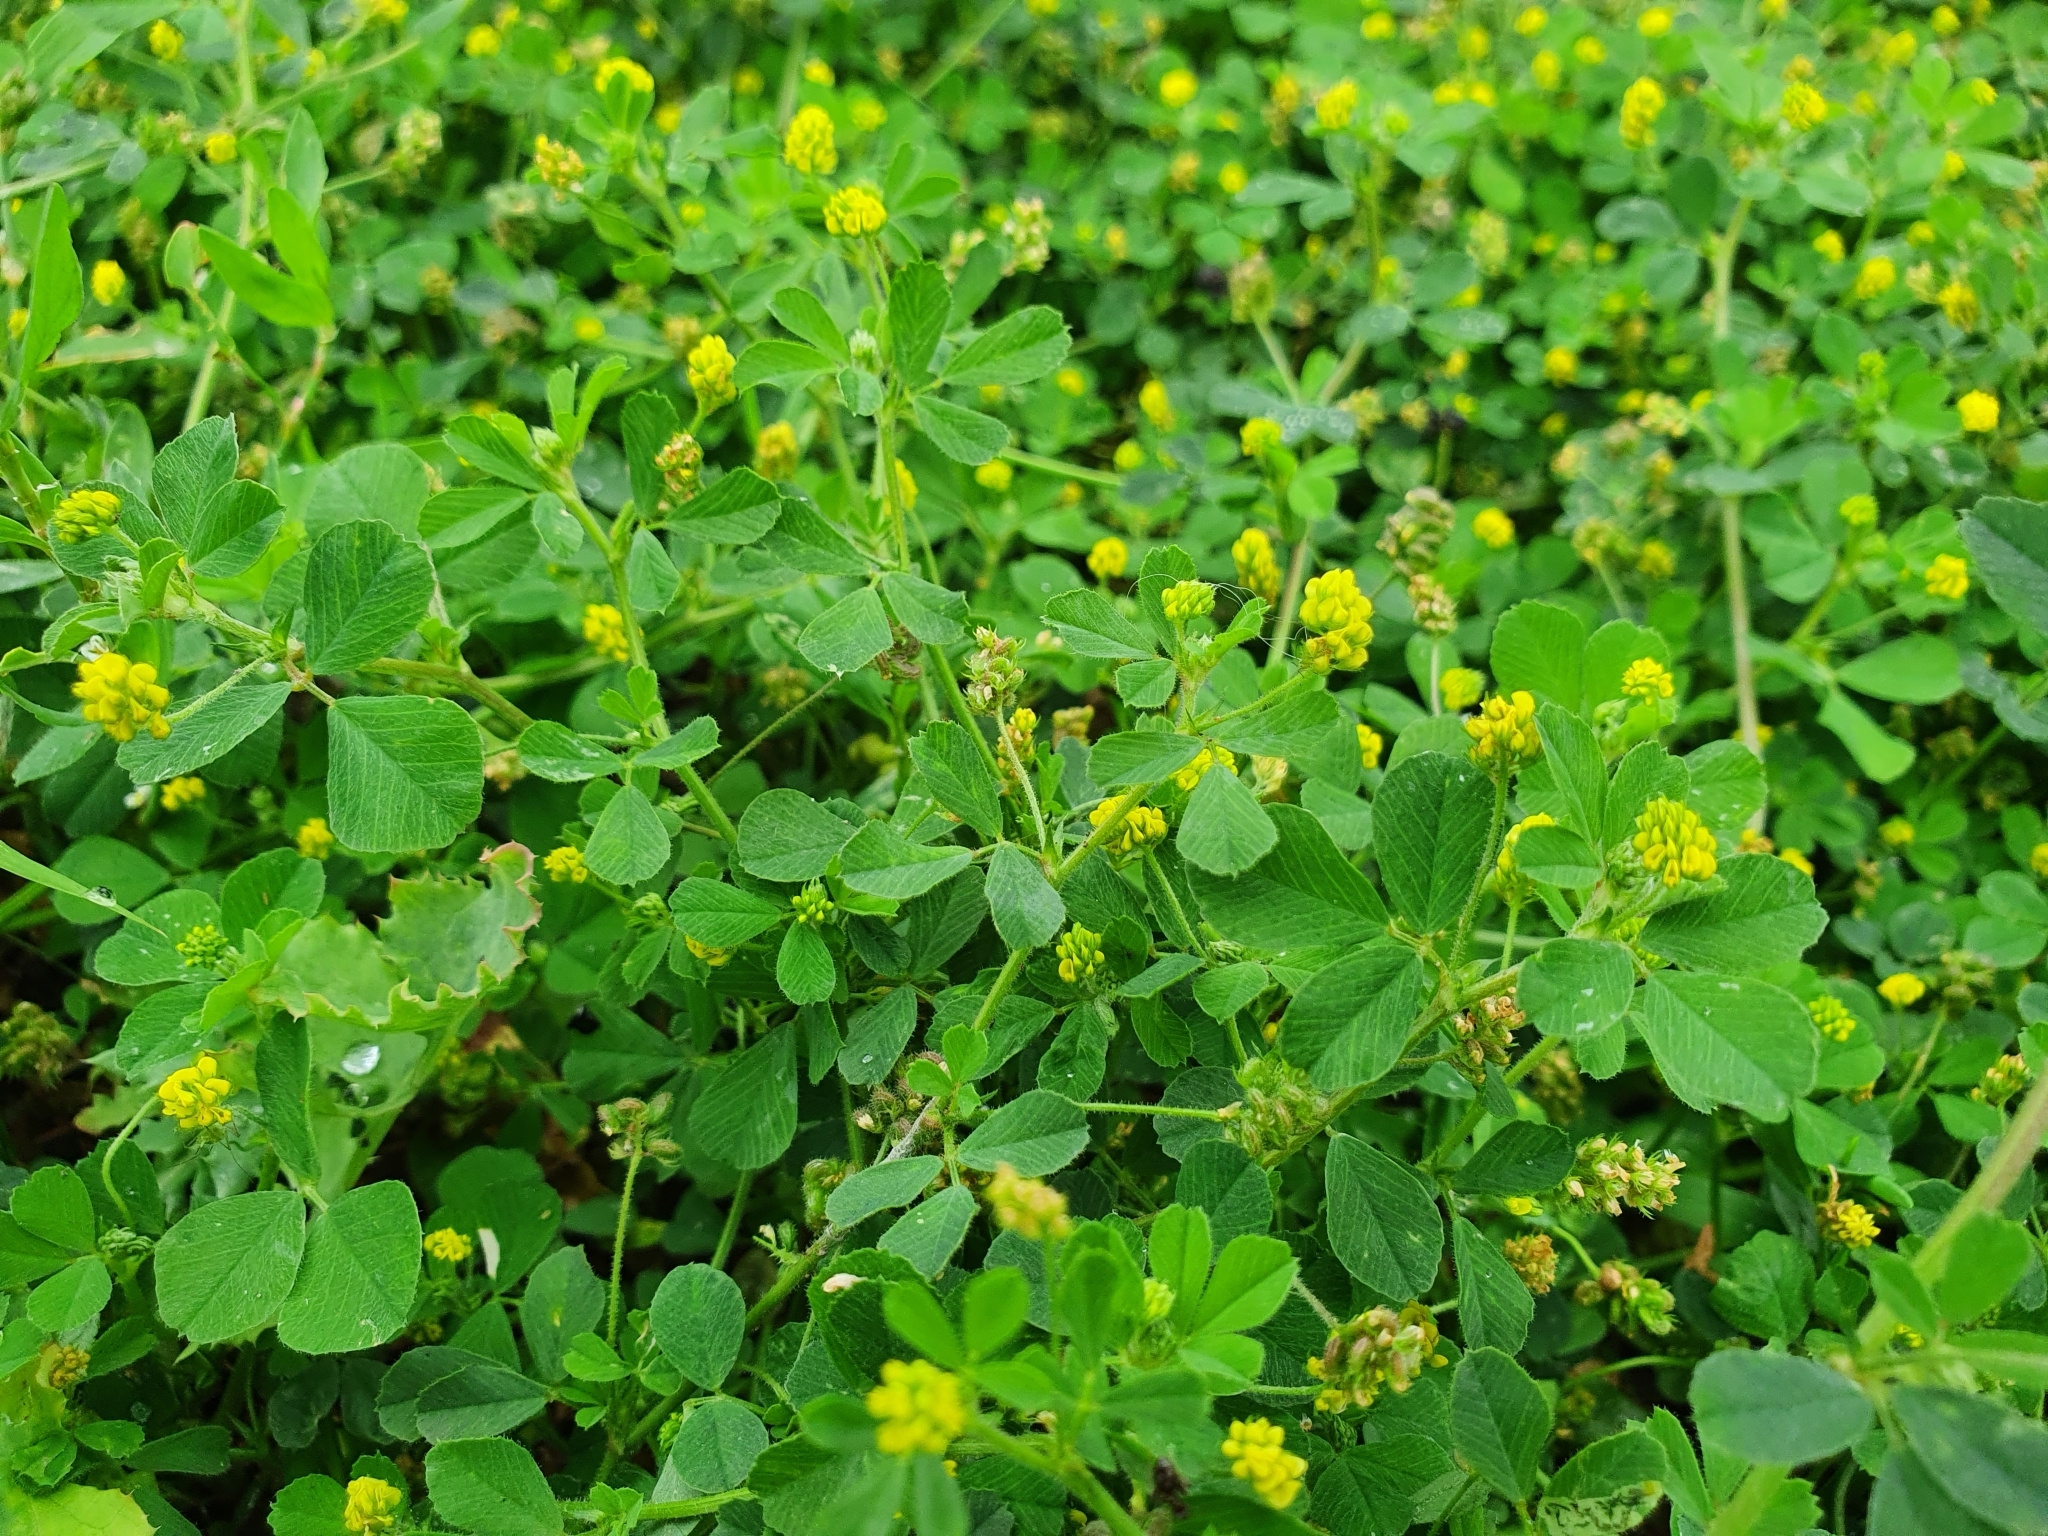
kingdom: Plantae
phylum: Tracheophyta
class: Magnoliopsida
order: Fabales
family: Fabaceae
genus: Medicago
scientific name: Medicago lupulina
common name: Black medick
